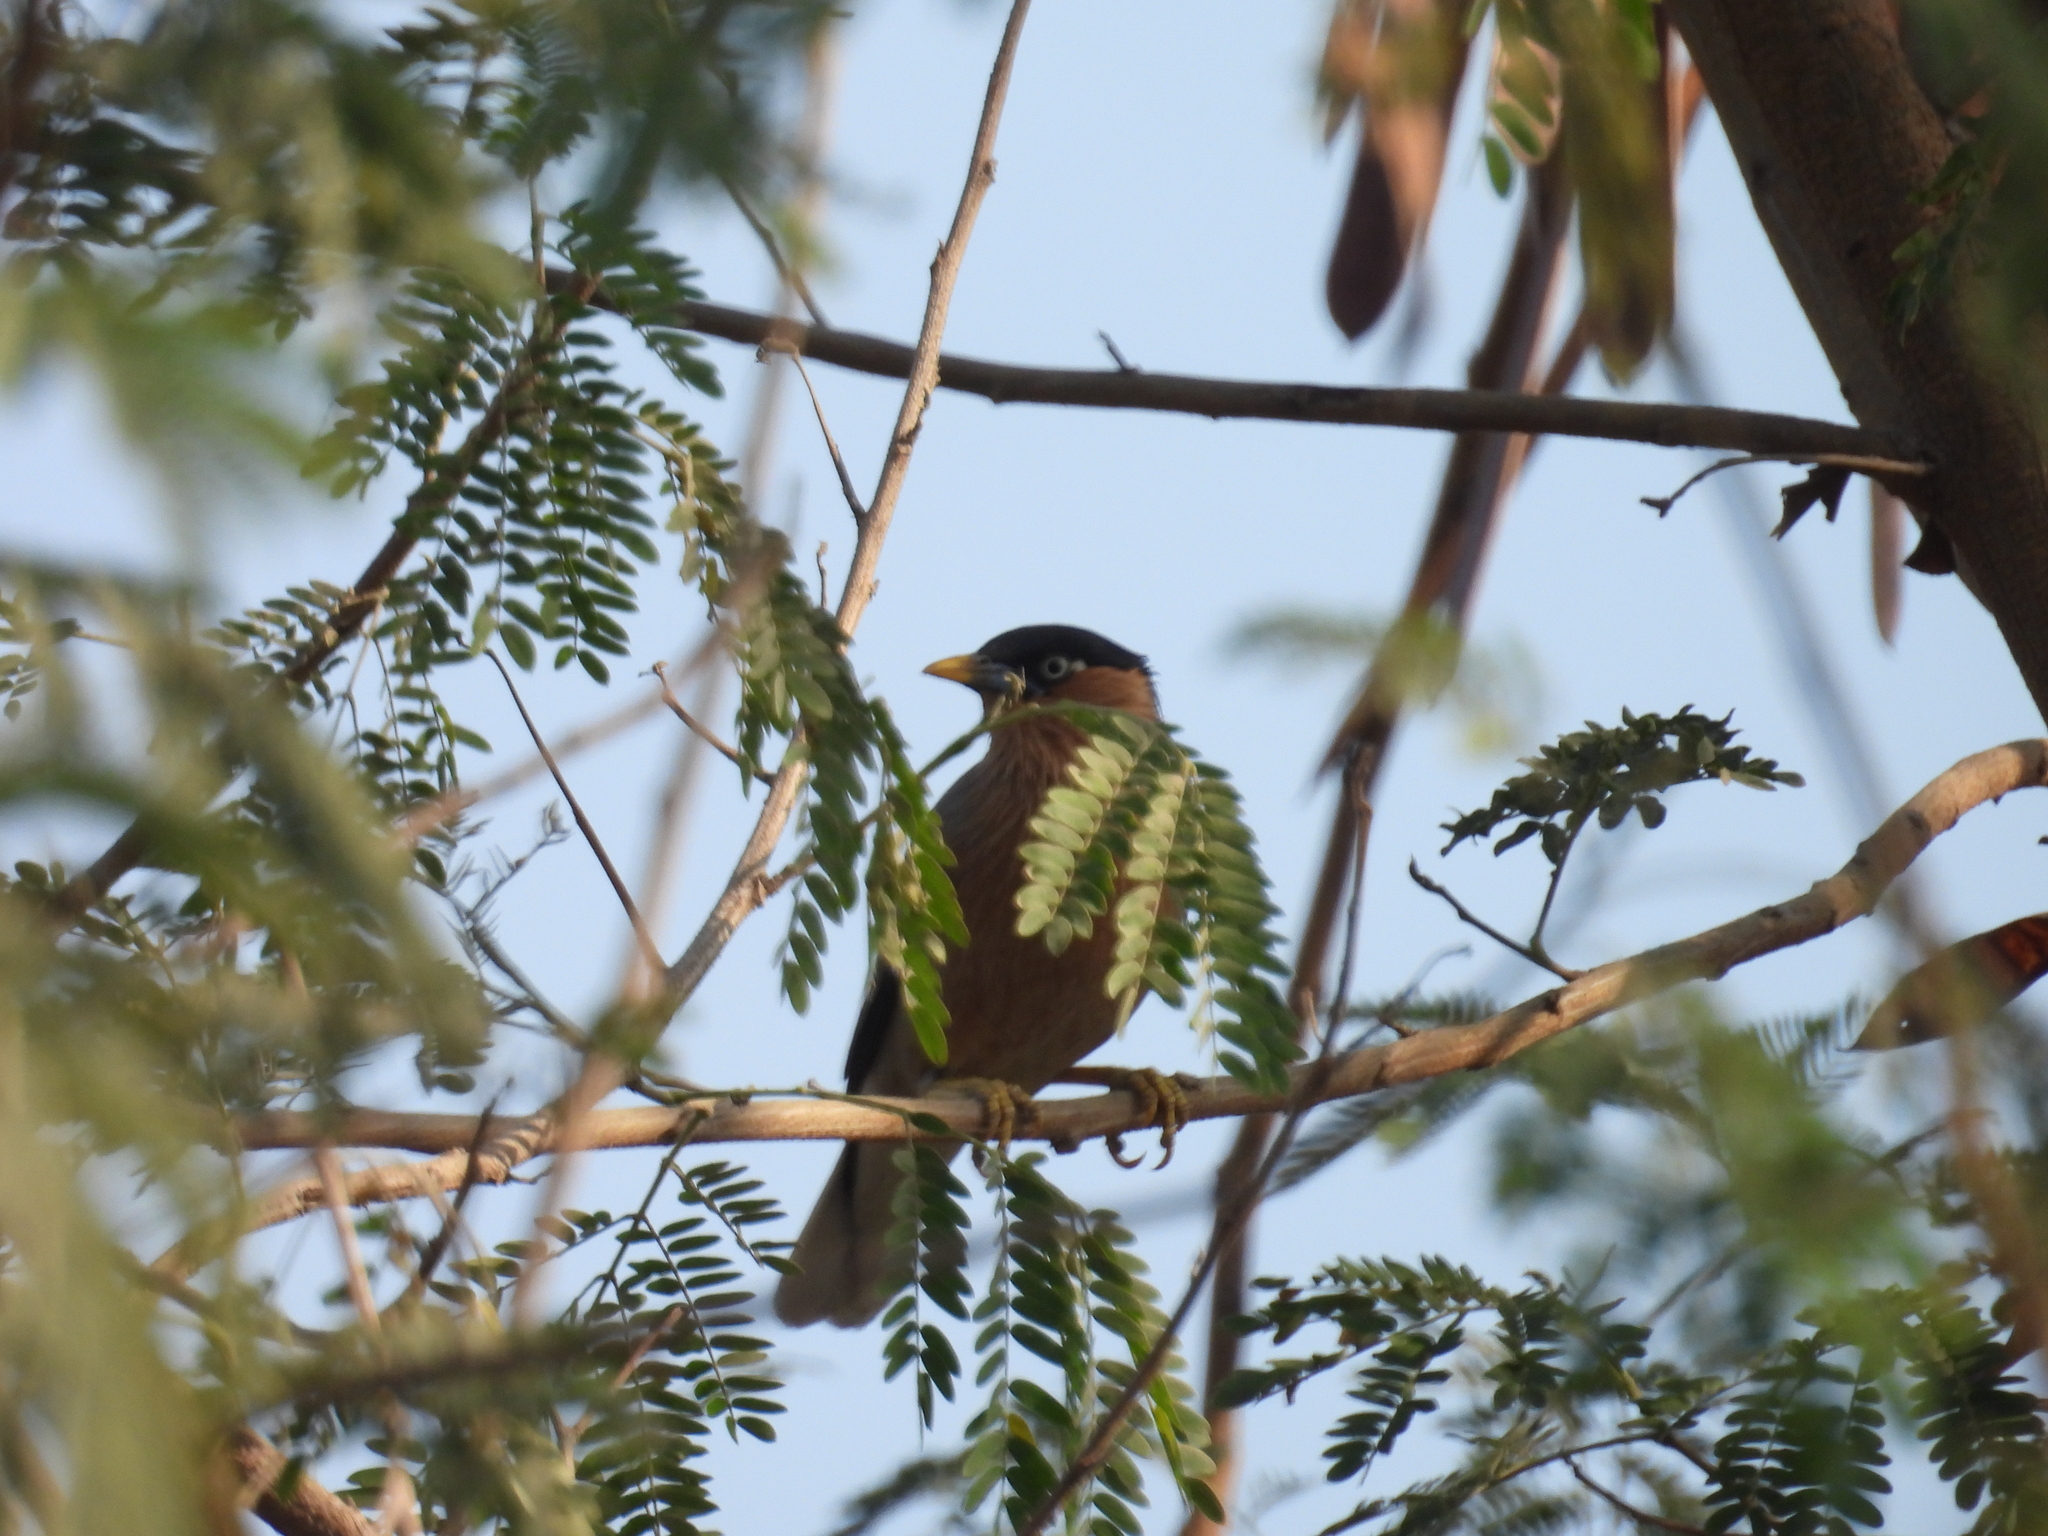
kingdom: Animalia
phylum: Chordata
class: Aves
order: Passeriformes
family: Sturnidae
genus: Sturnia
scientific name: Sturnia pagodarum
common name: Brahminy starling
